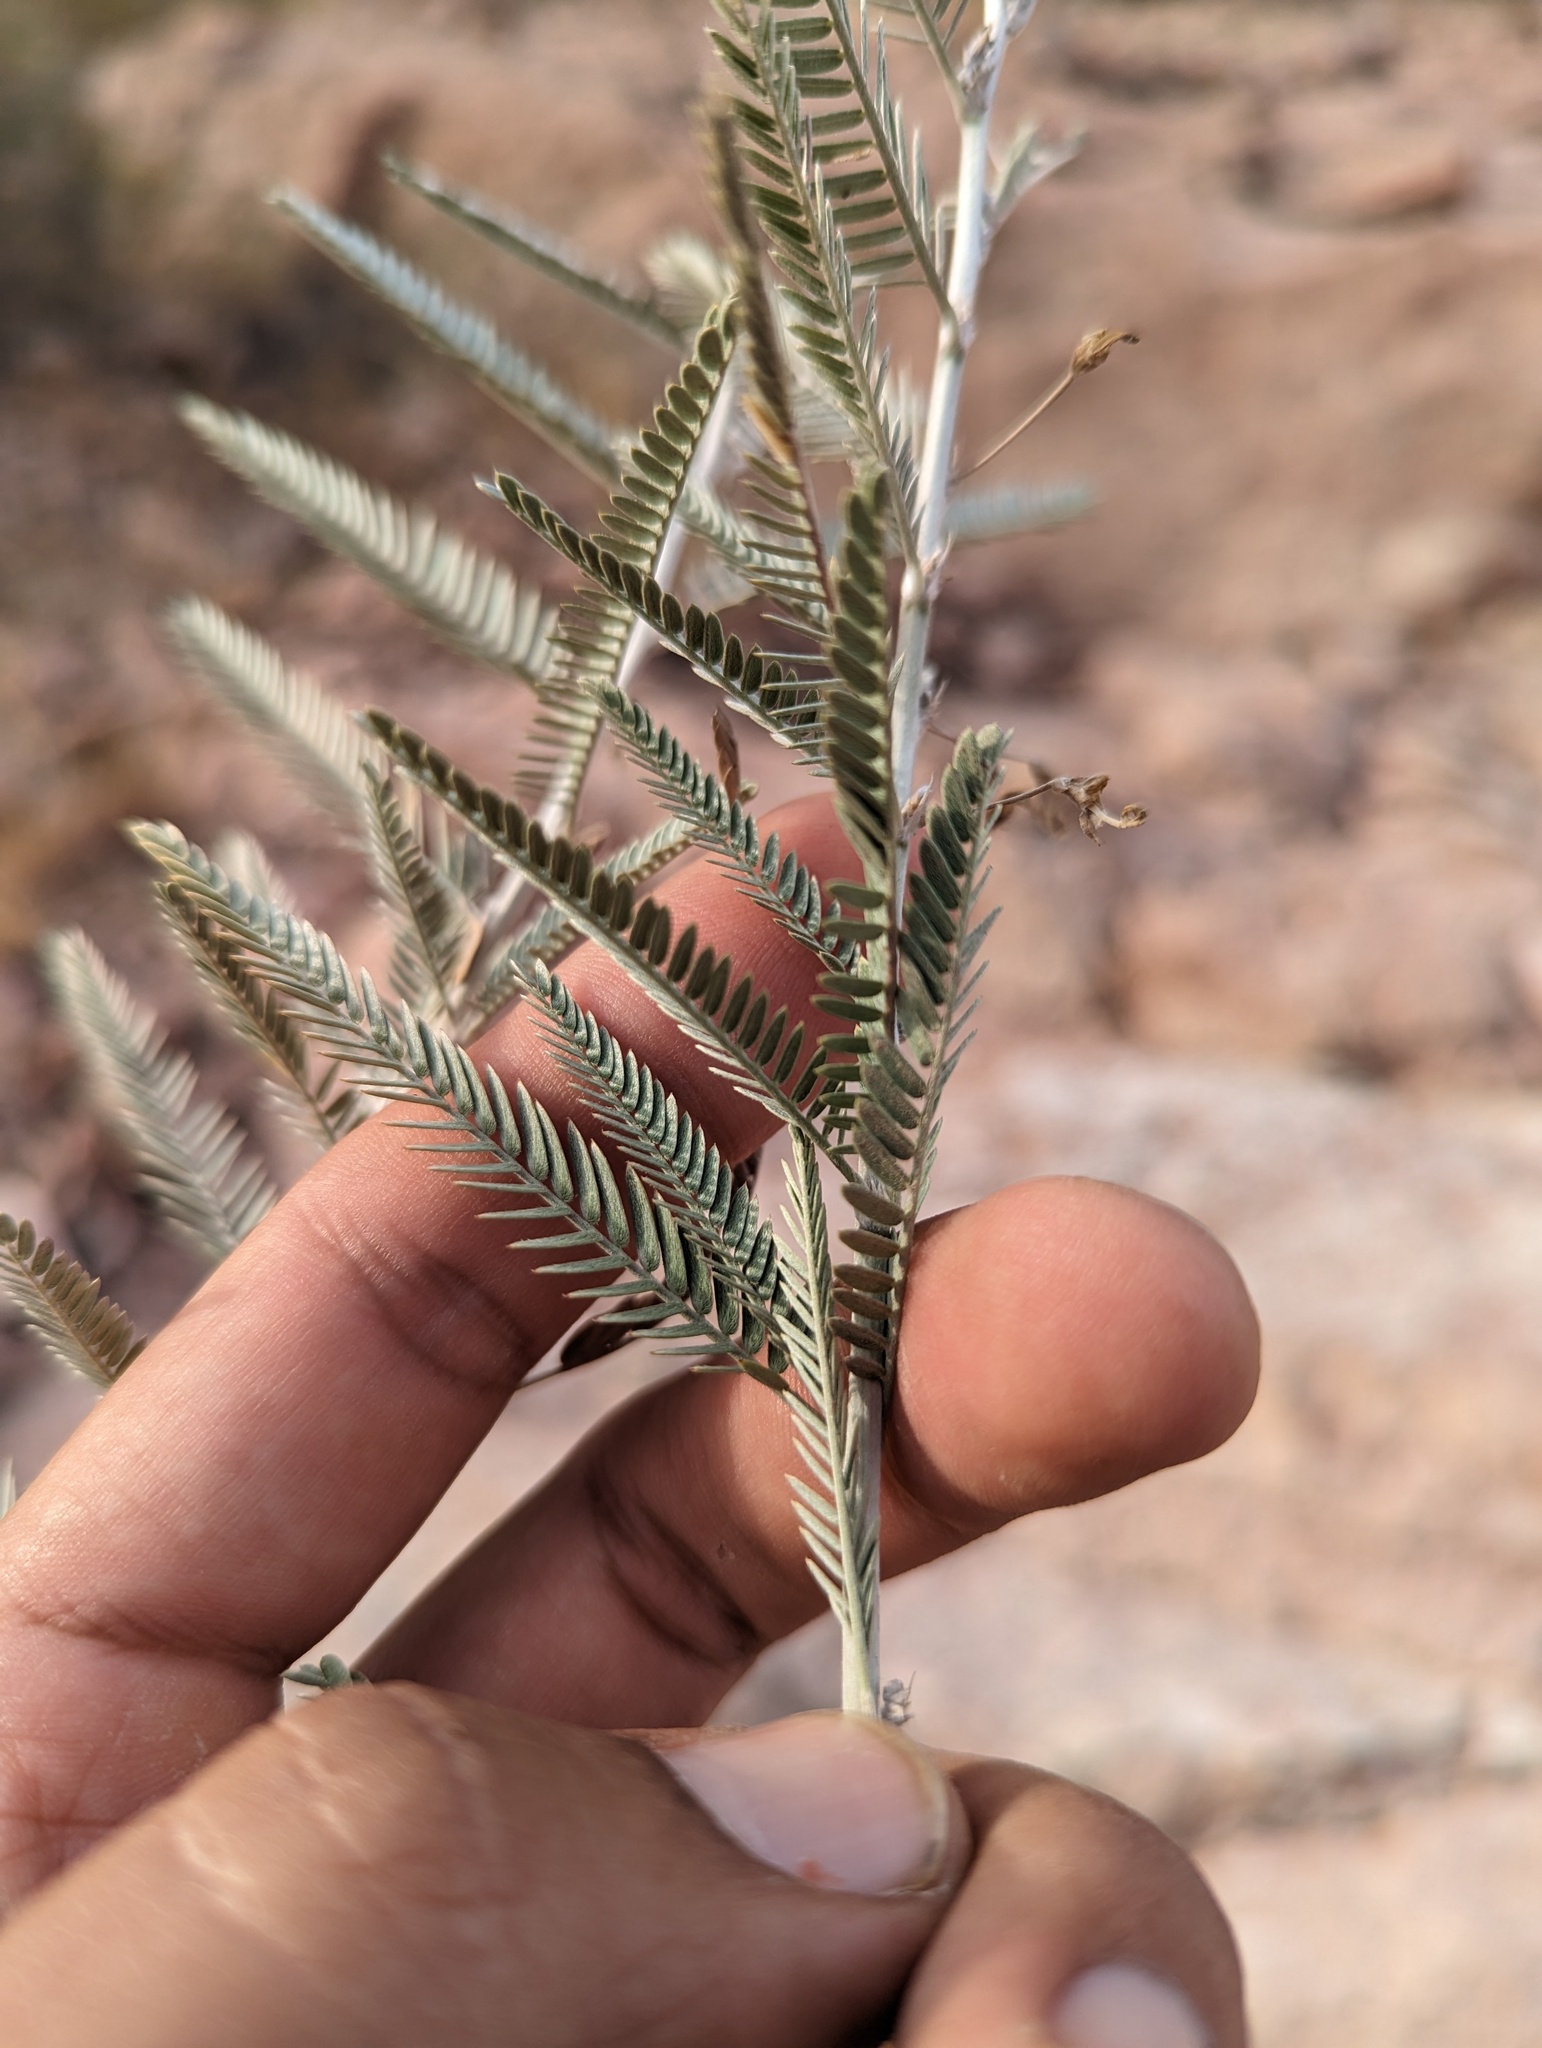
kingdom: Plantae
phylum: Tracheophyta
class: Magnoliopsida
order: Fabales
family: Fabaceae
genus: Ctenodon
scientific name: Ctenodon niveus
